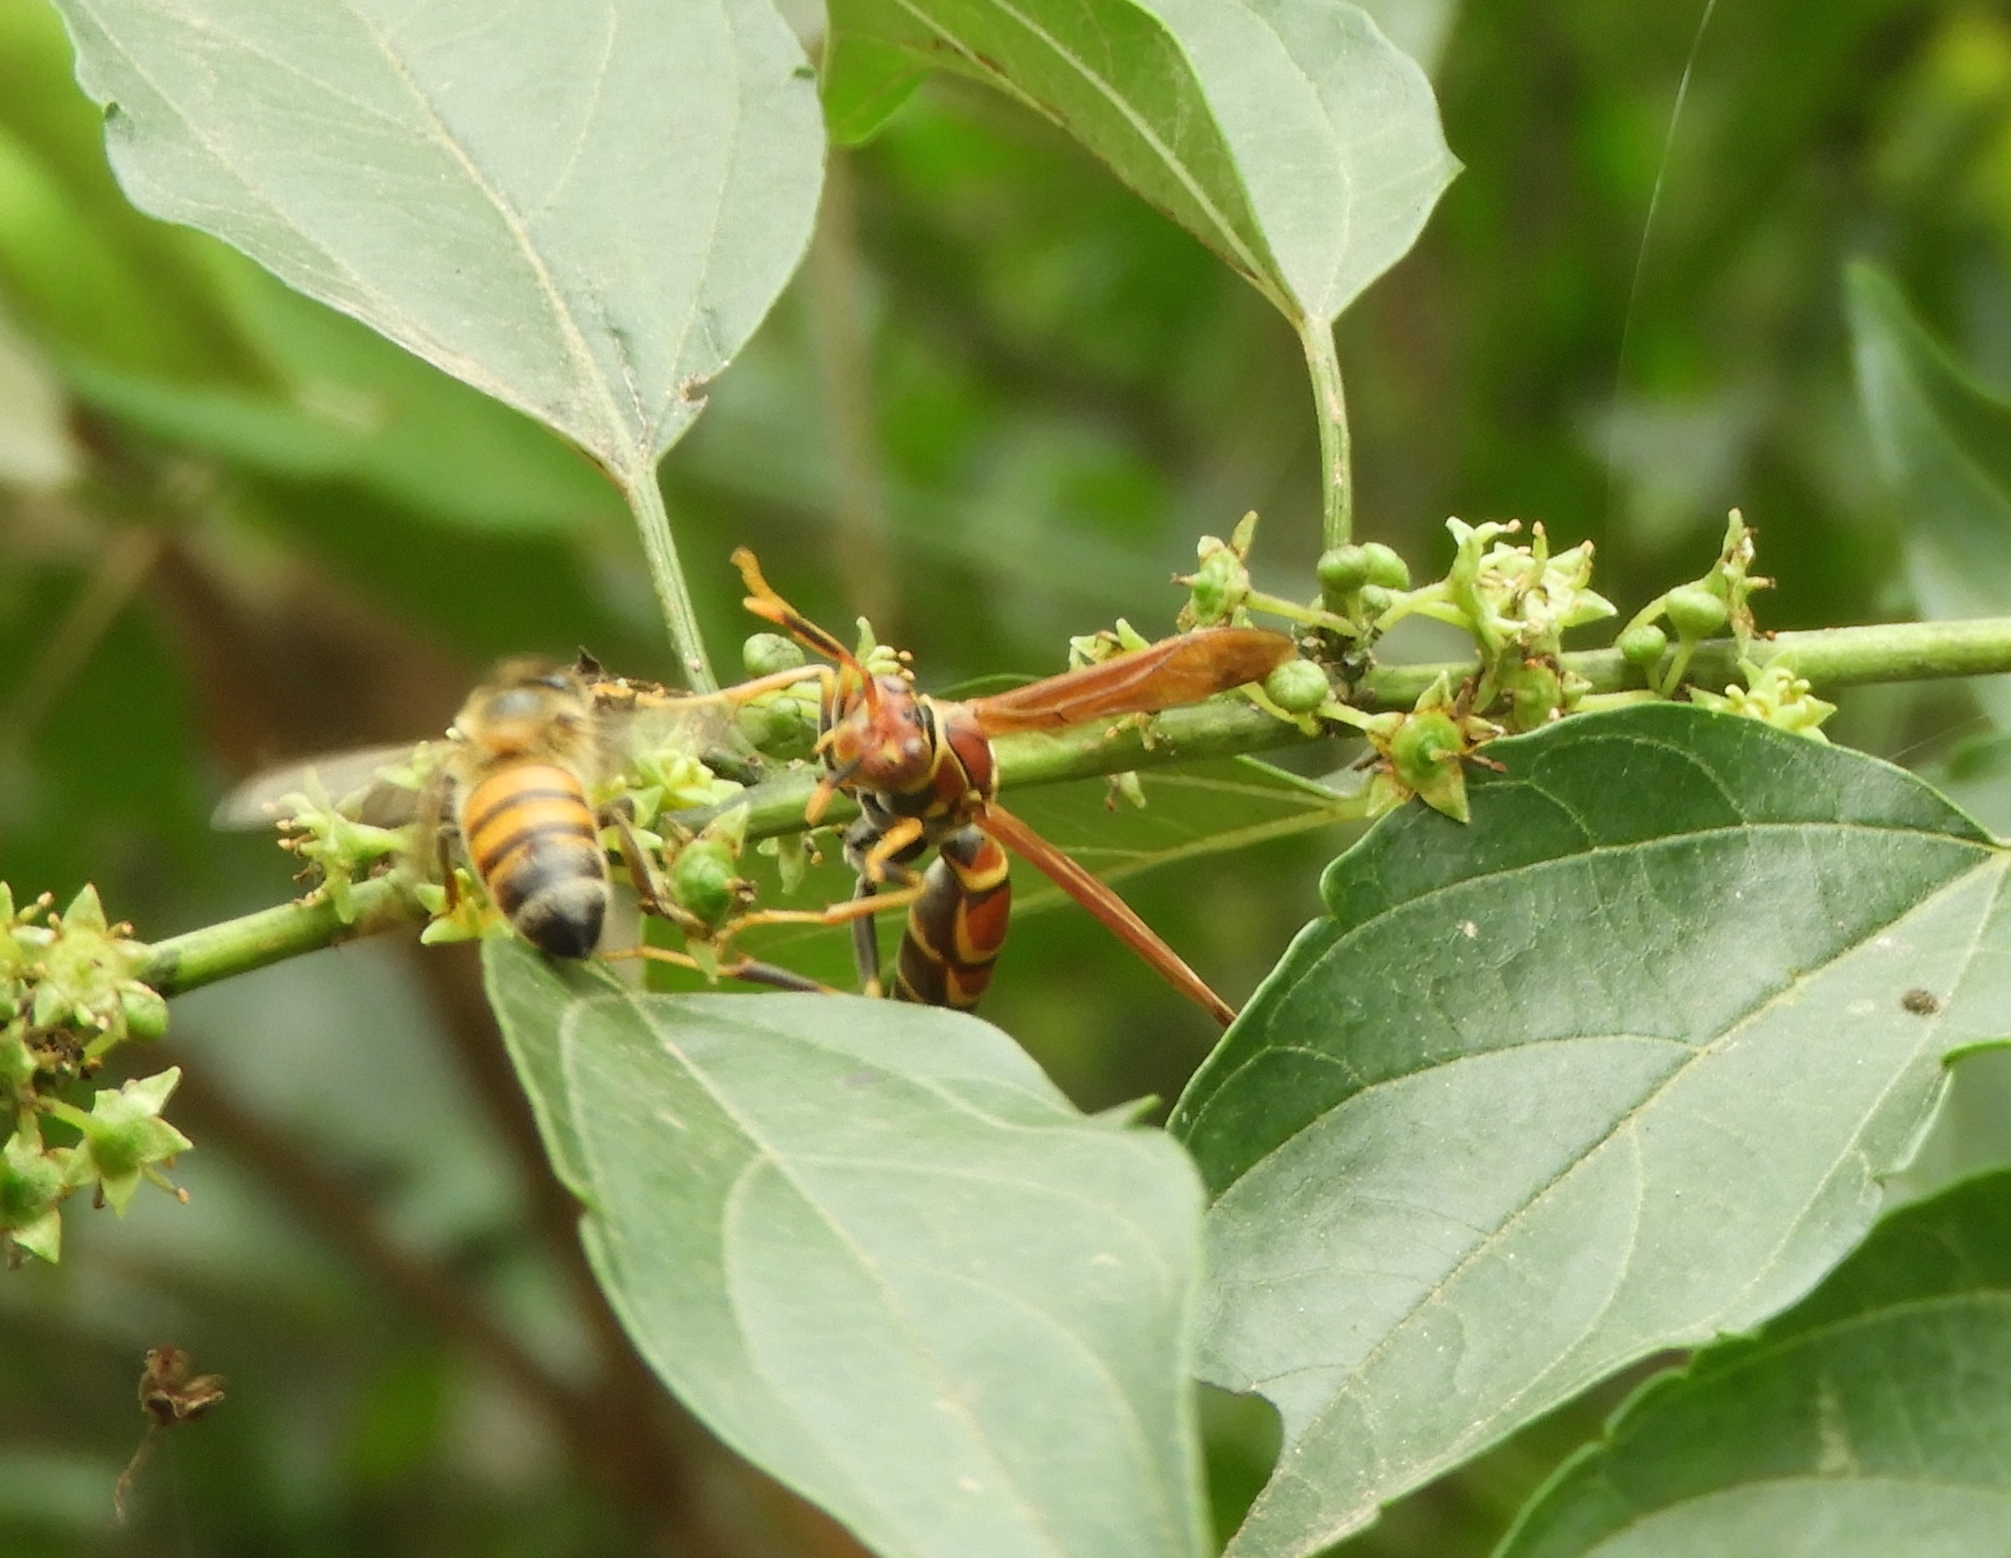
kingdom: Animalia
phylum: Arthropoda
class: Insecta
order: Hymenoptera
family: Eumenidae
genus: Polistes
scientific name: Polistes instabilis
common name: Unstable paper wasp
